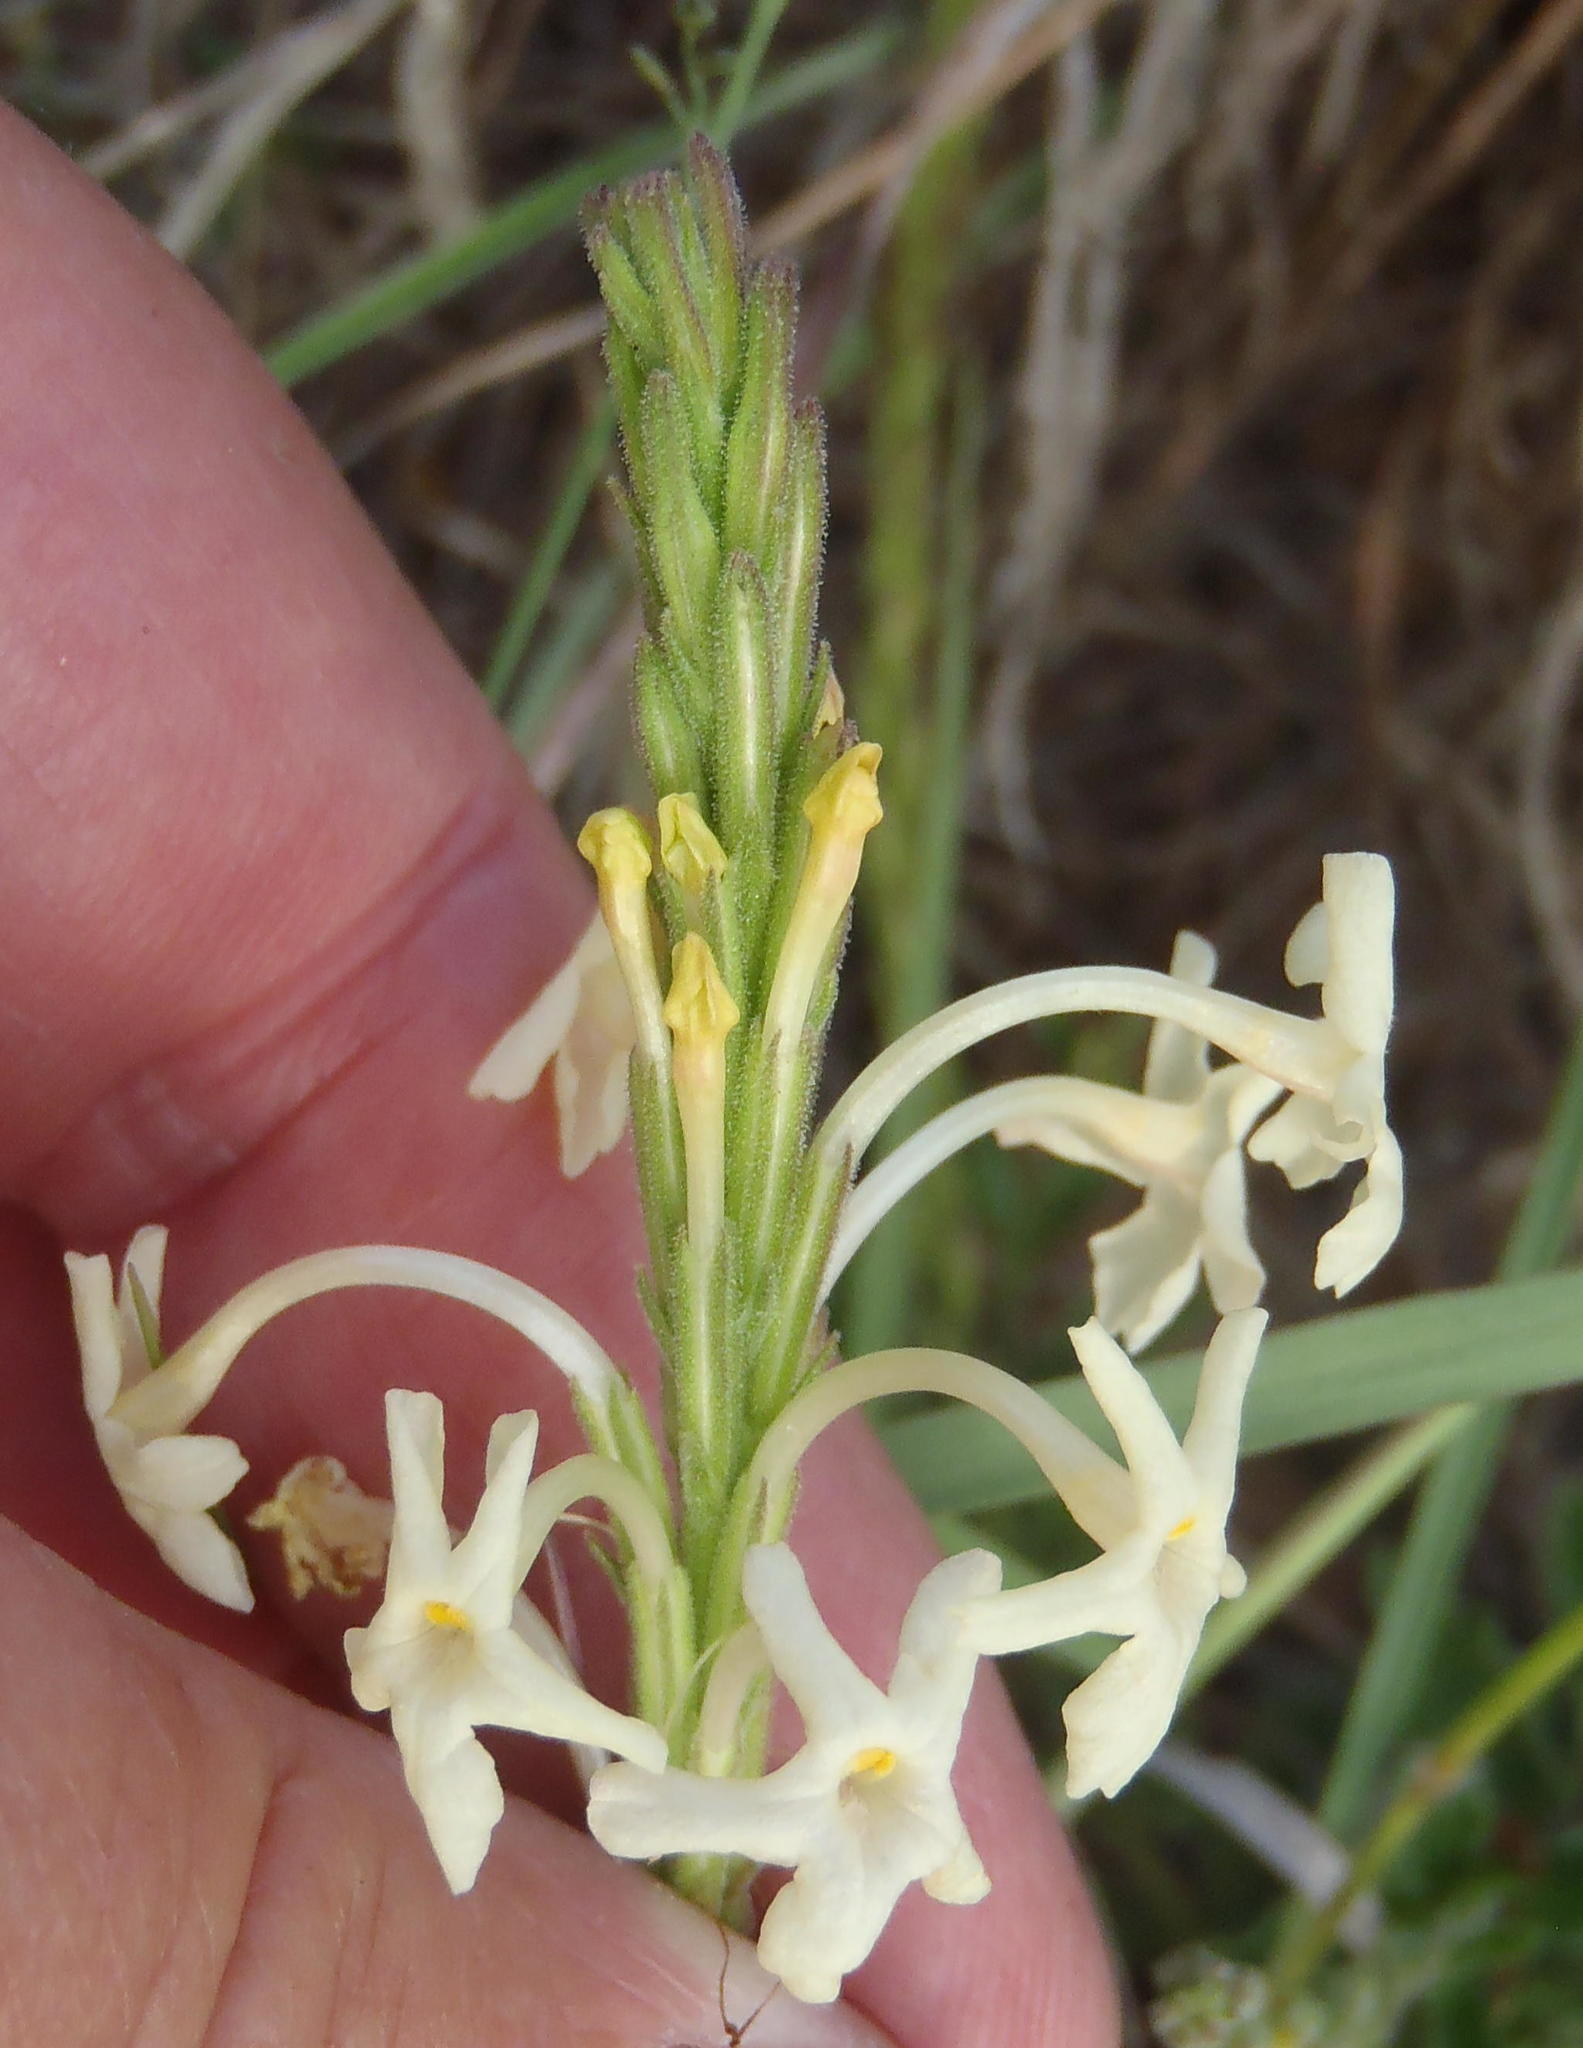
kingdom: Plantae
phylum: Tracheophyta
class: Magnoliopsida
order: Lamiales
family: Verbenaceae
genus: Chascanum
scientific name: Chascanum hederaceum
